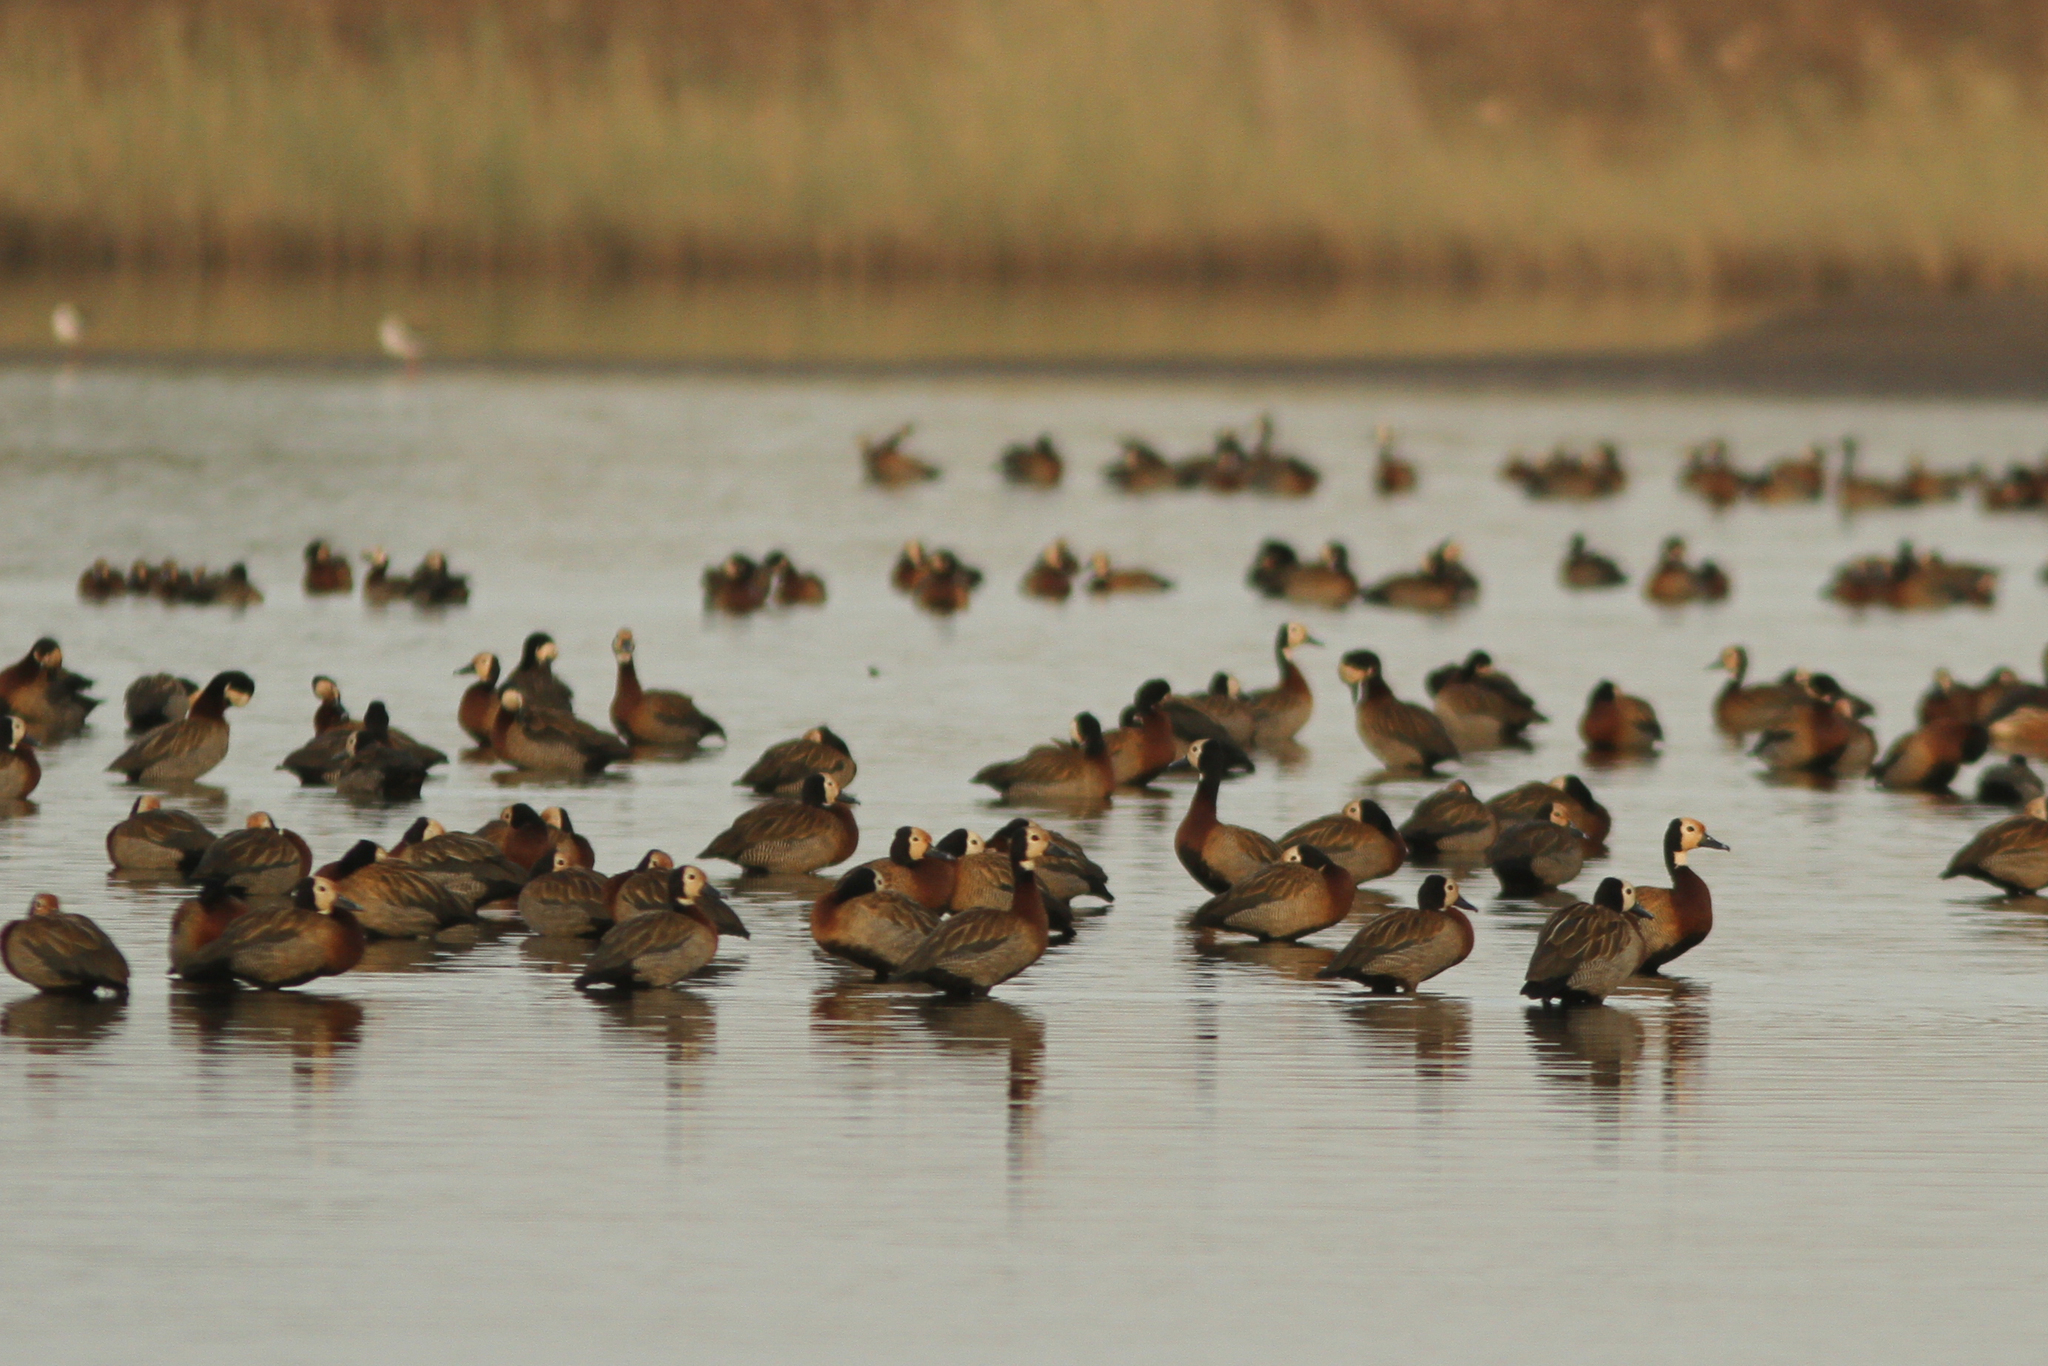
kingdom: Animalia
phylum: Chordata
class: Aves
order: Anseriformes
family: Anatidae
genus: Dendrocygna
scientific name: Dendrocygna viduata
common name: White-faced whistling duck
